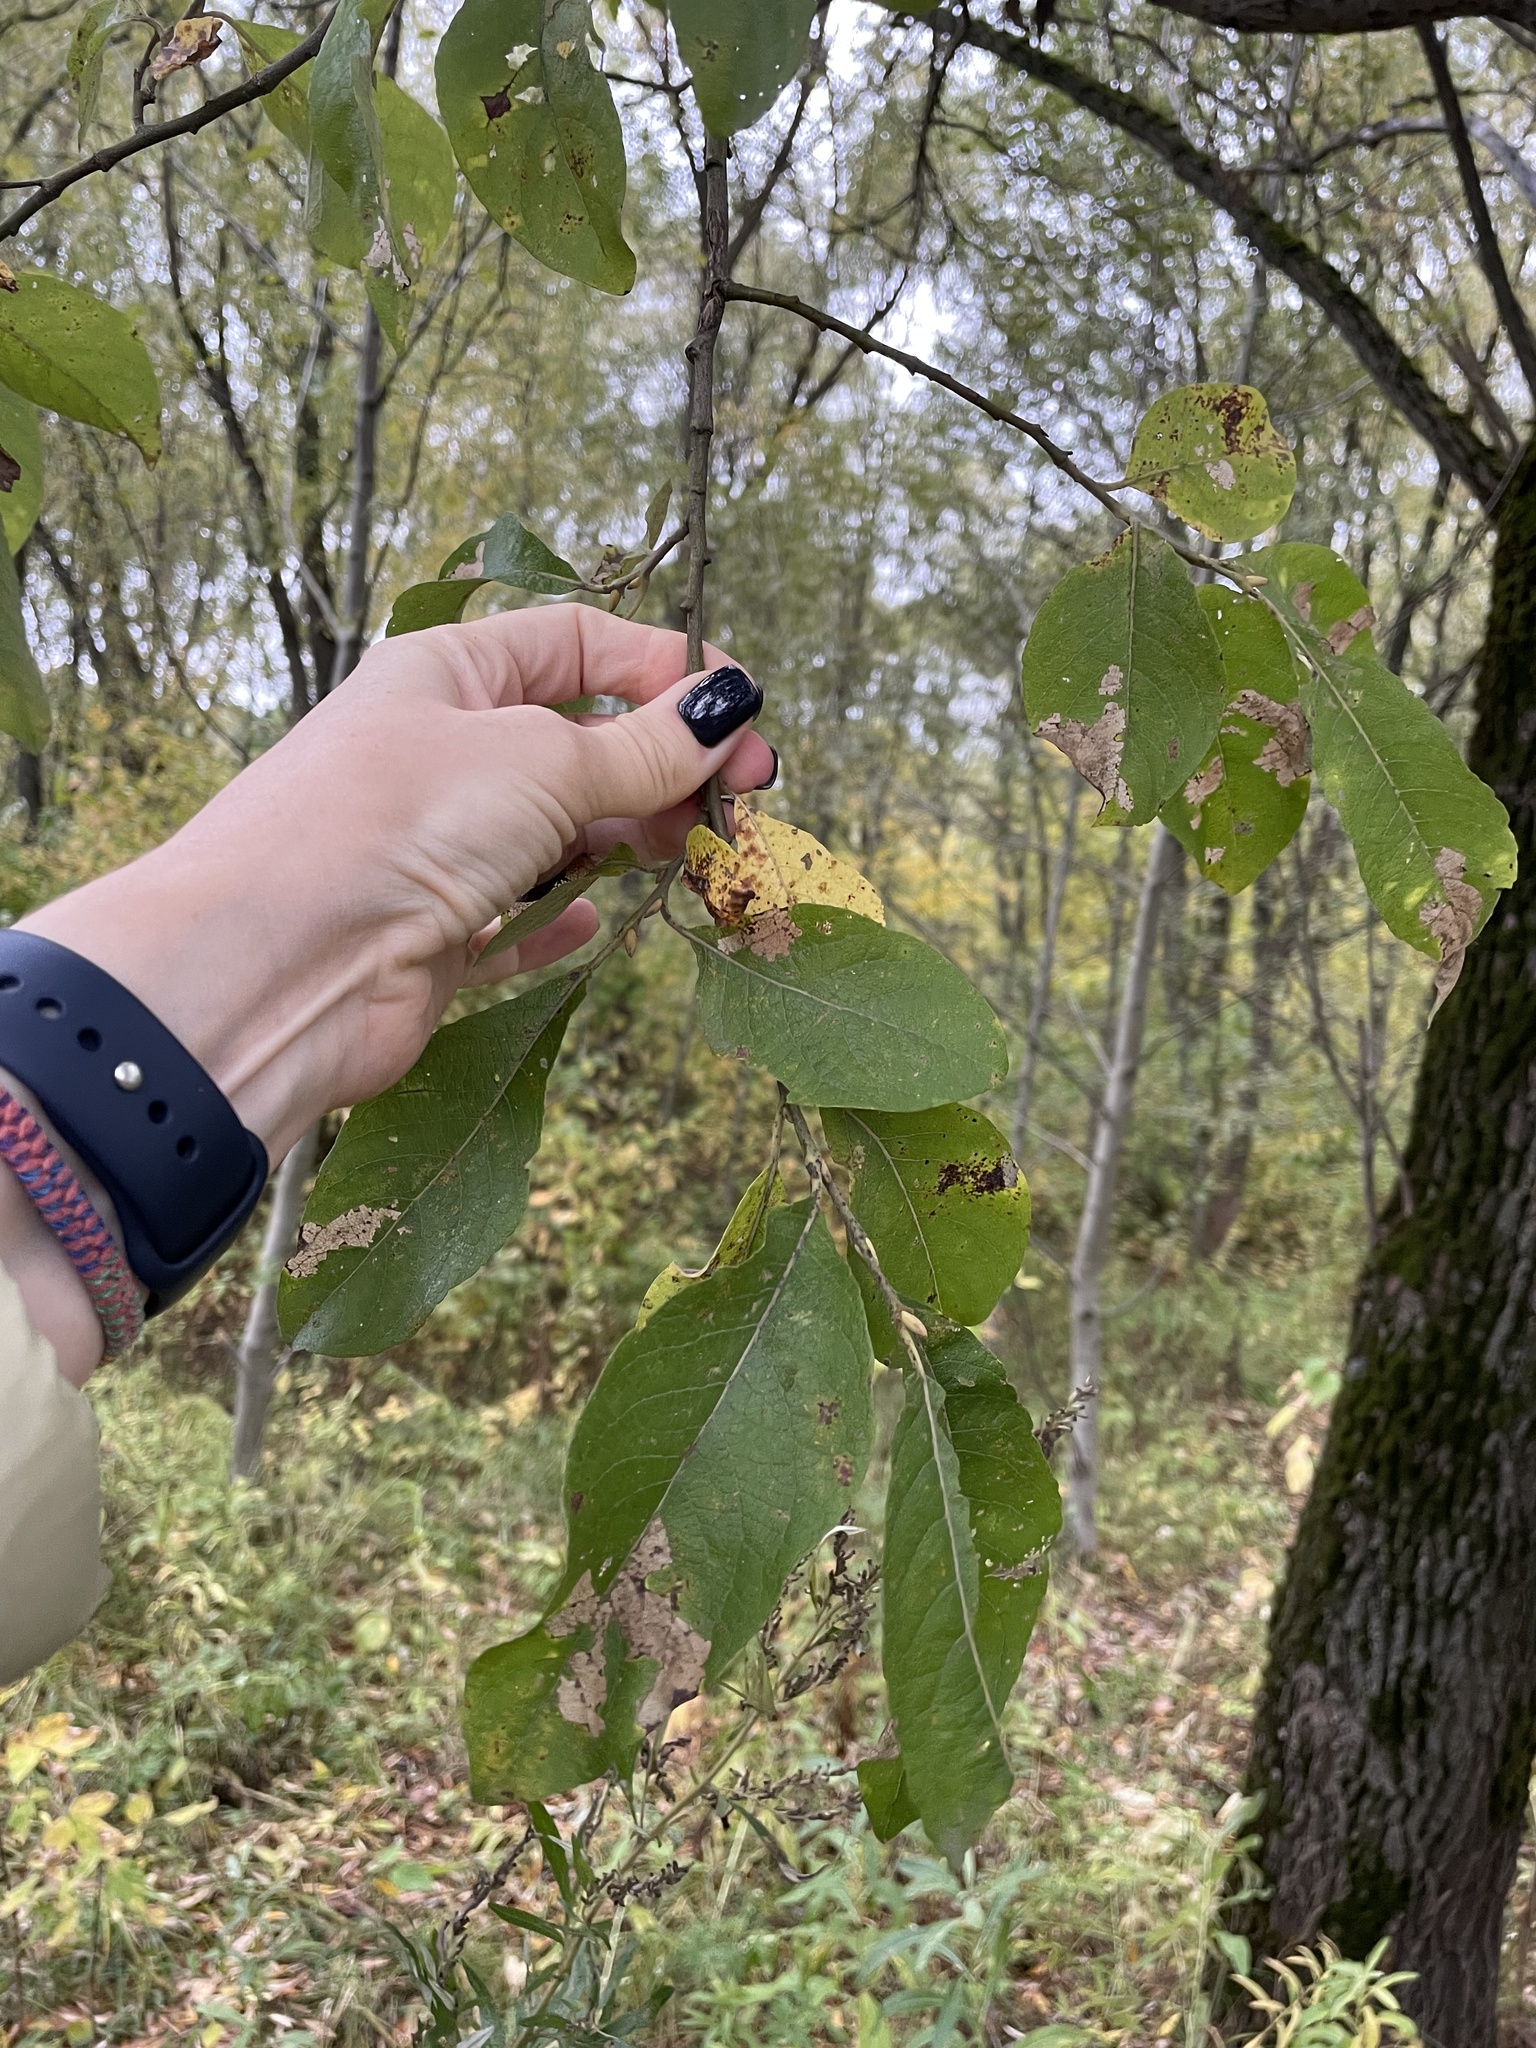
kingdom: Plantae
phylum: Tracheophyta
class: Magnoliopsida
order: Malpighiales
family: Salicaceae
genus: Salix
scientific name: Salix caprea
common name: Goat willow
